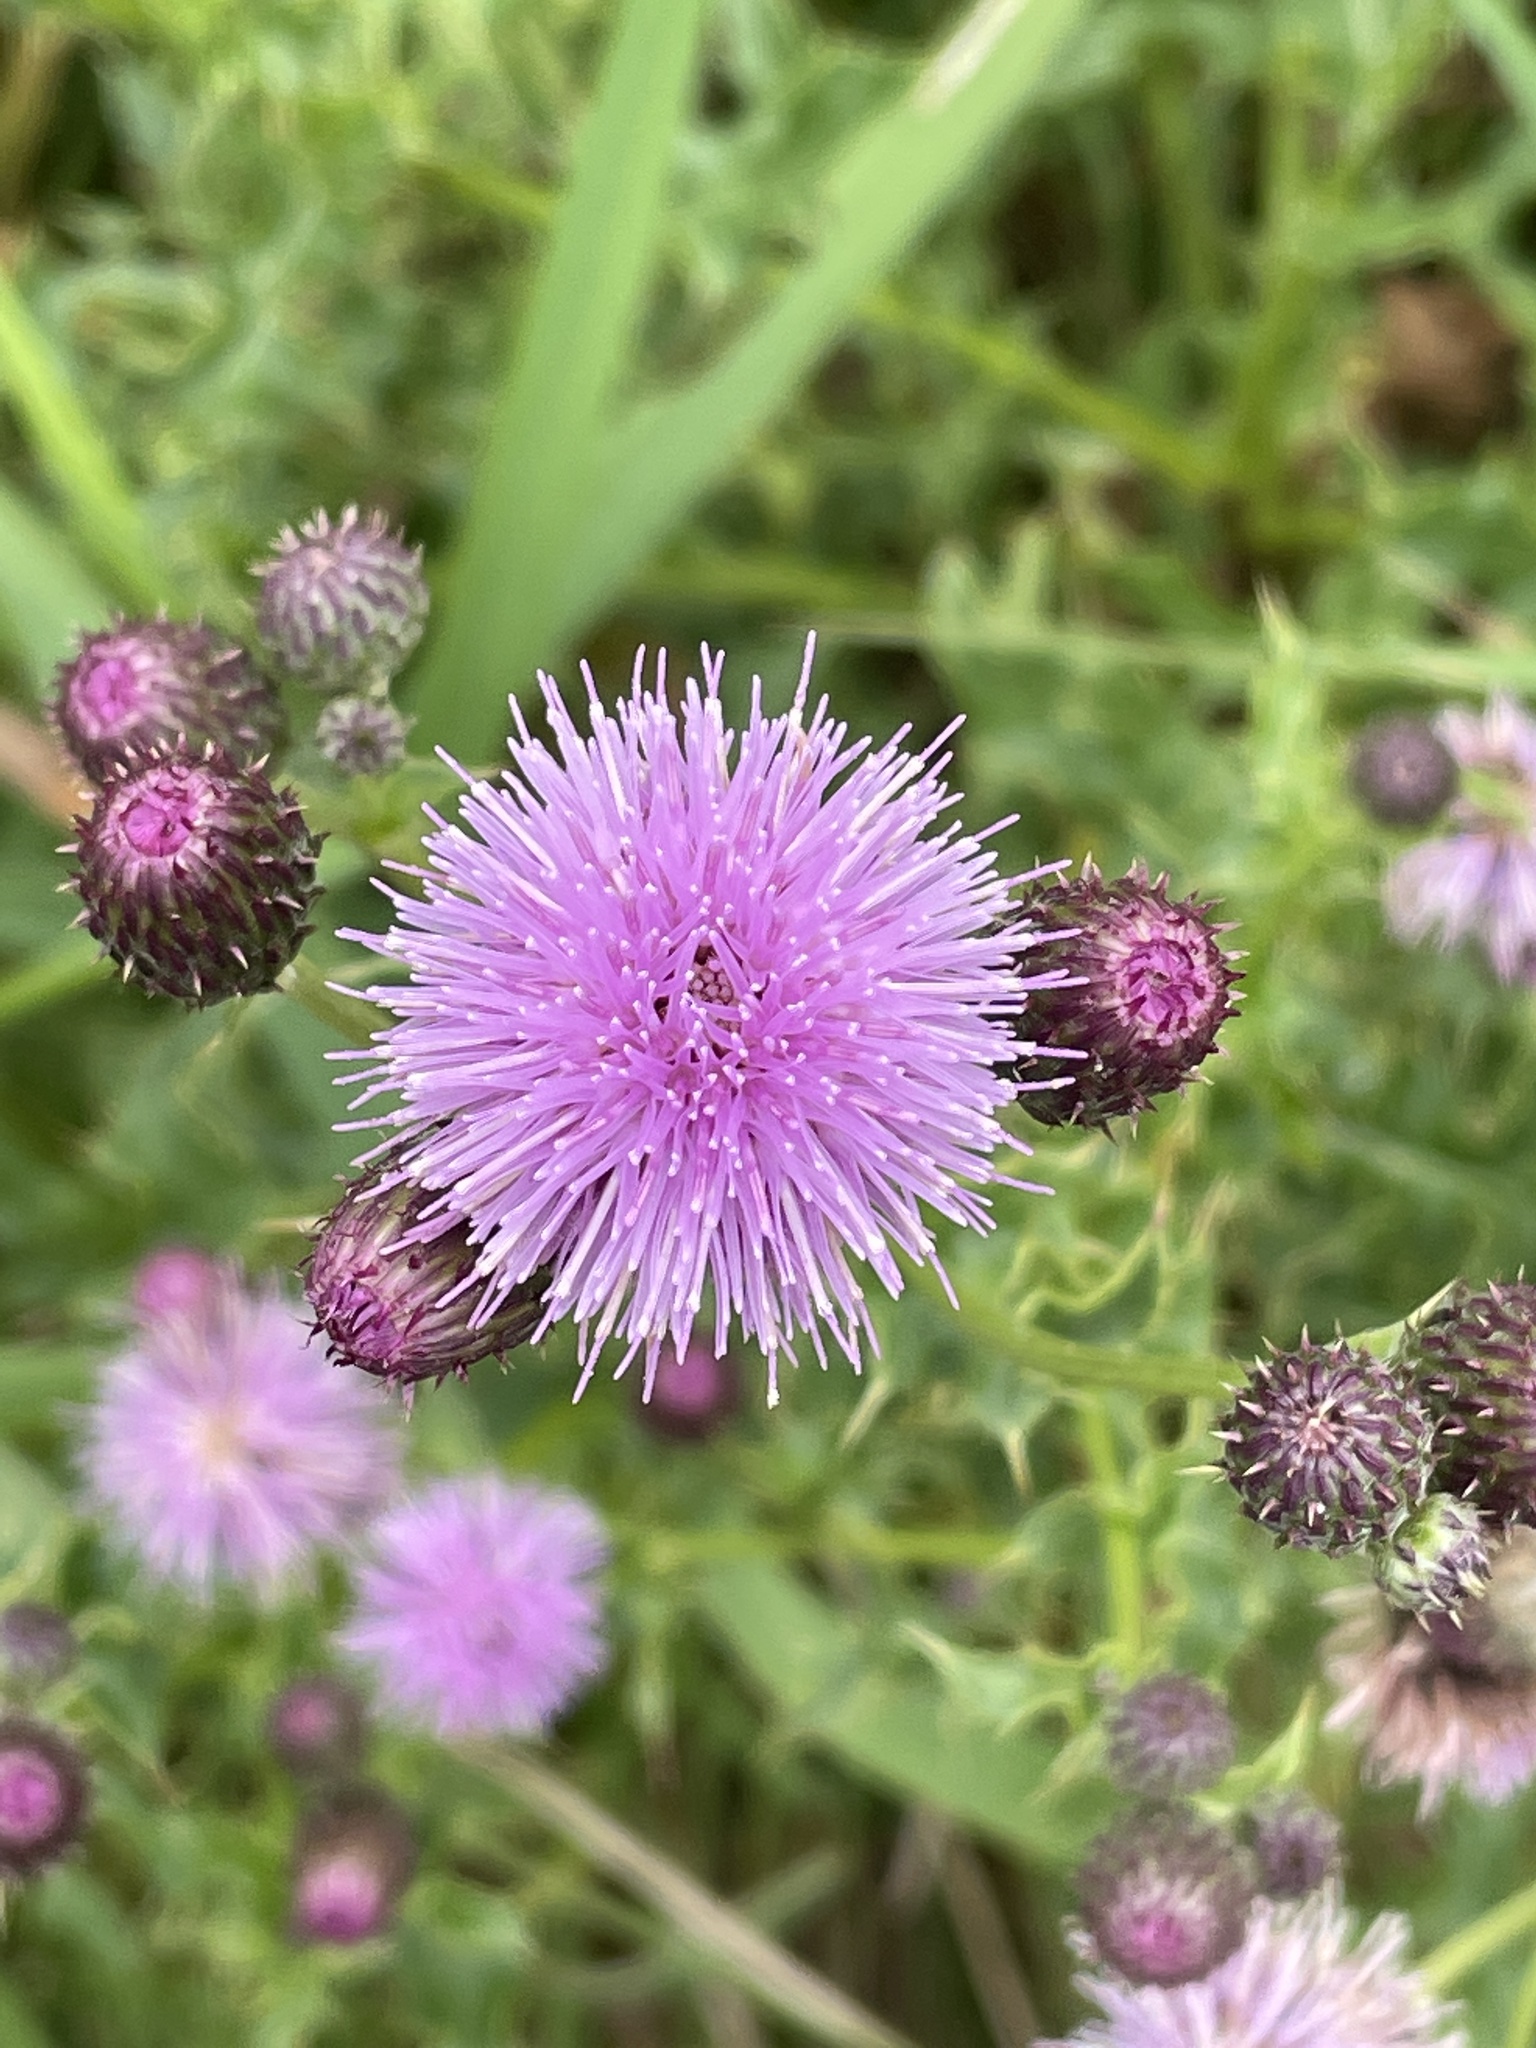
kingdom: Plantae
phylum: Tracheophyta
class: Magnoliopsida
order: Asterales
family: Asteraceae
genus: Cirsium
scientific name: Cirsium arvense
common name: Creeping thistle
